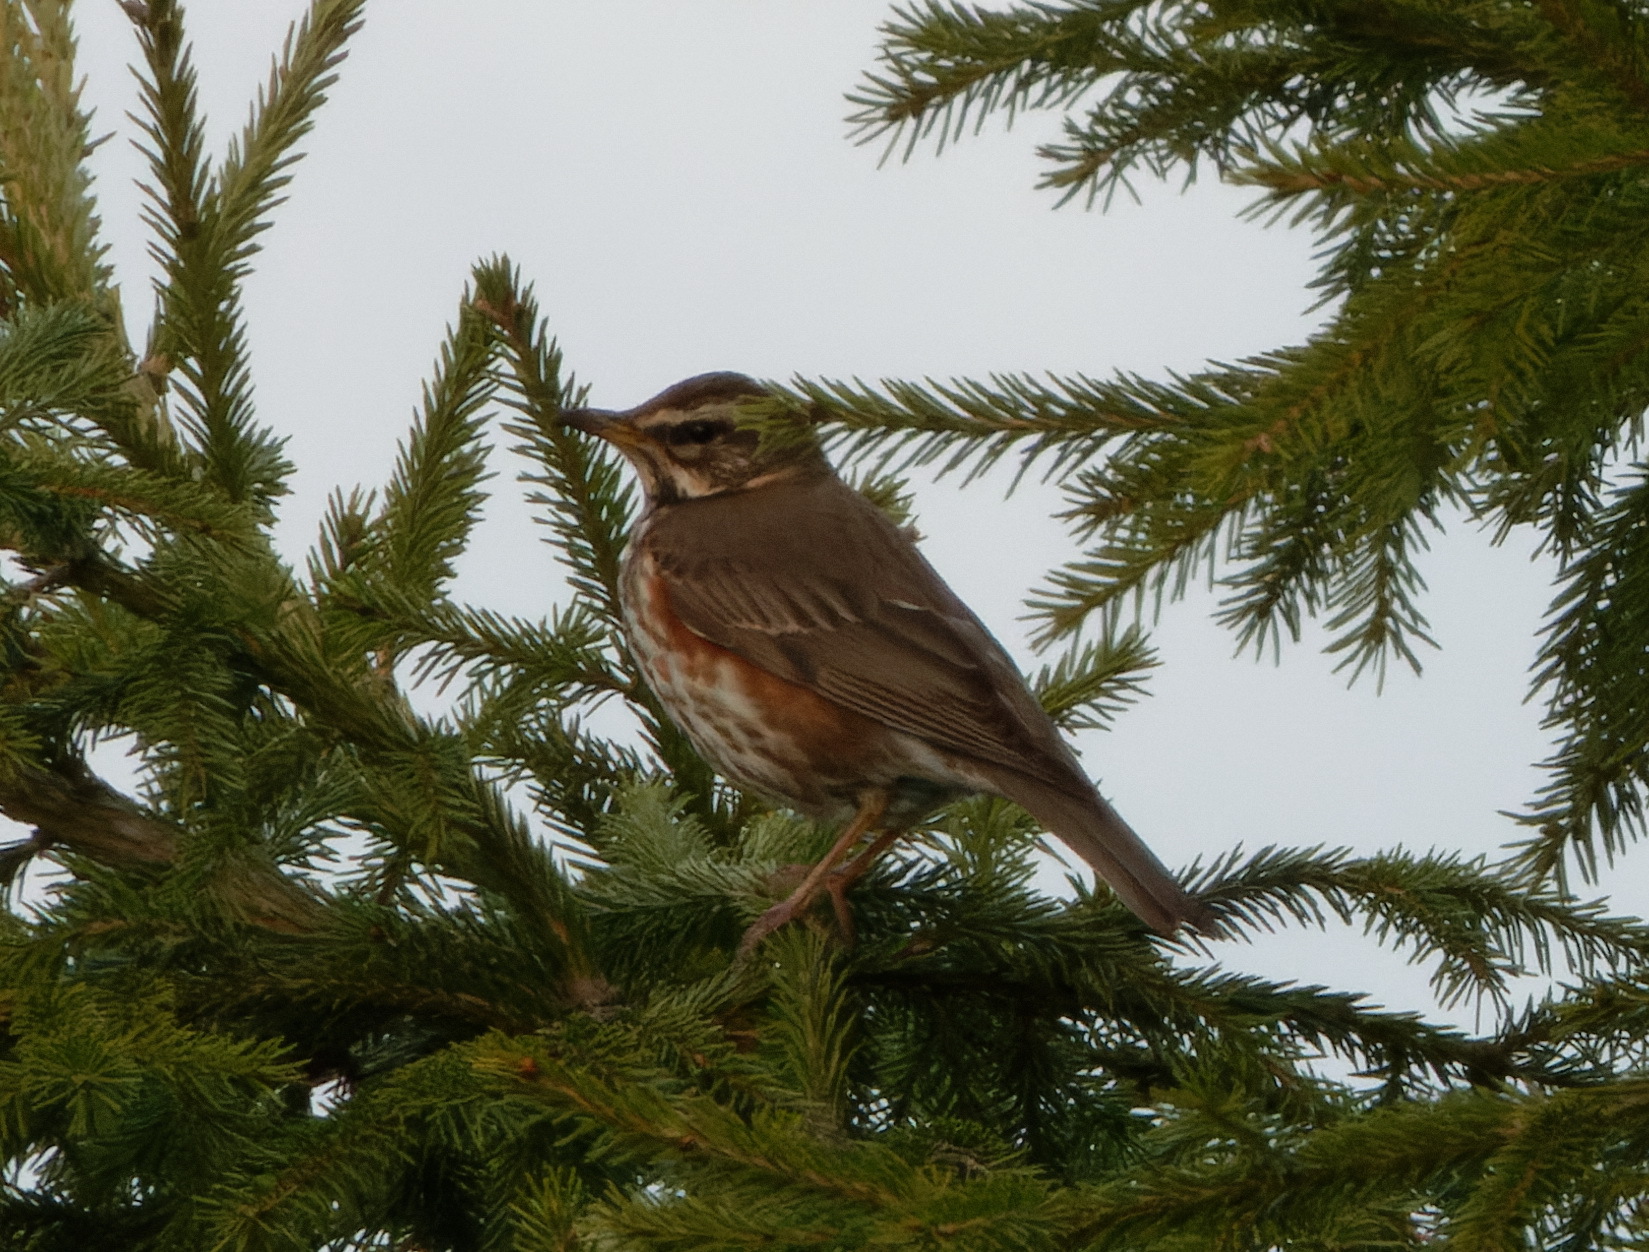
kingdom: Animalia
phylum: Chordata
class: Aves
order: Passeriformes
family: Turdidae
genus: Turdus
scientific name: Turdus iliacus
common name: Redwing
